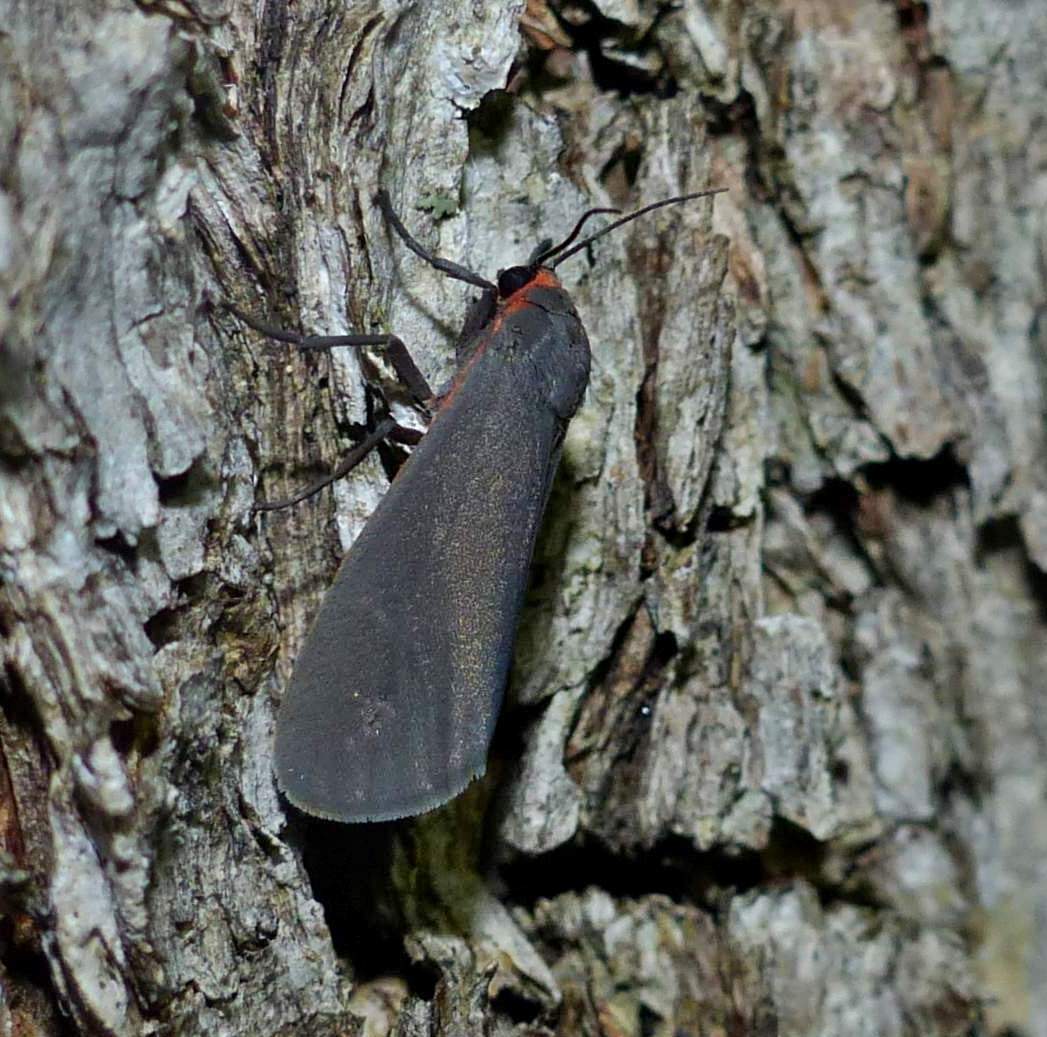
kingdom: Animalia
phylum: Arthropoda
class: Insecta
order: Lepidoptera
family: Erebidae
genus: Virbia
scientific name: Virbia laeta
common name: Joyful holomelina moth
